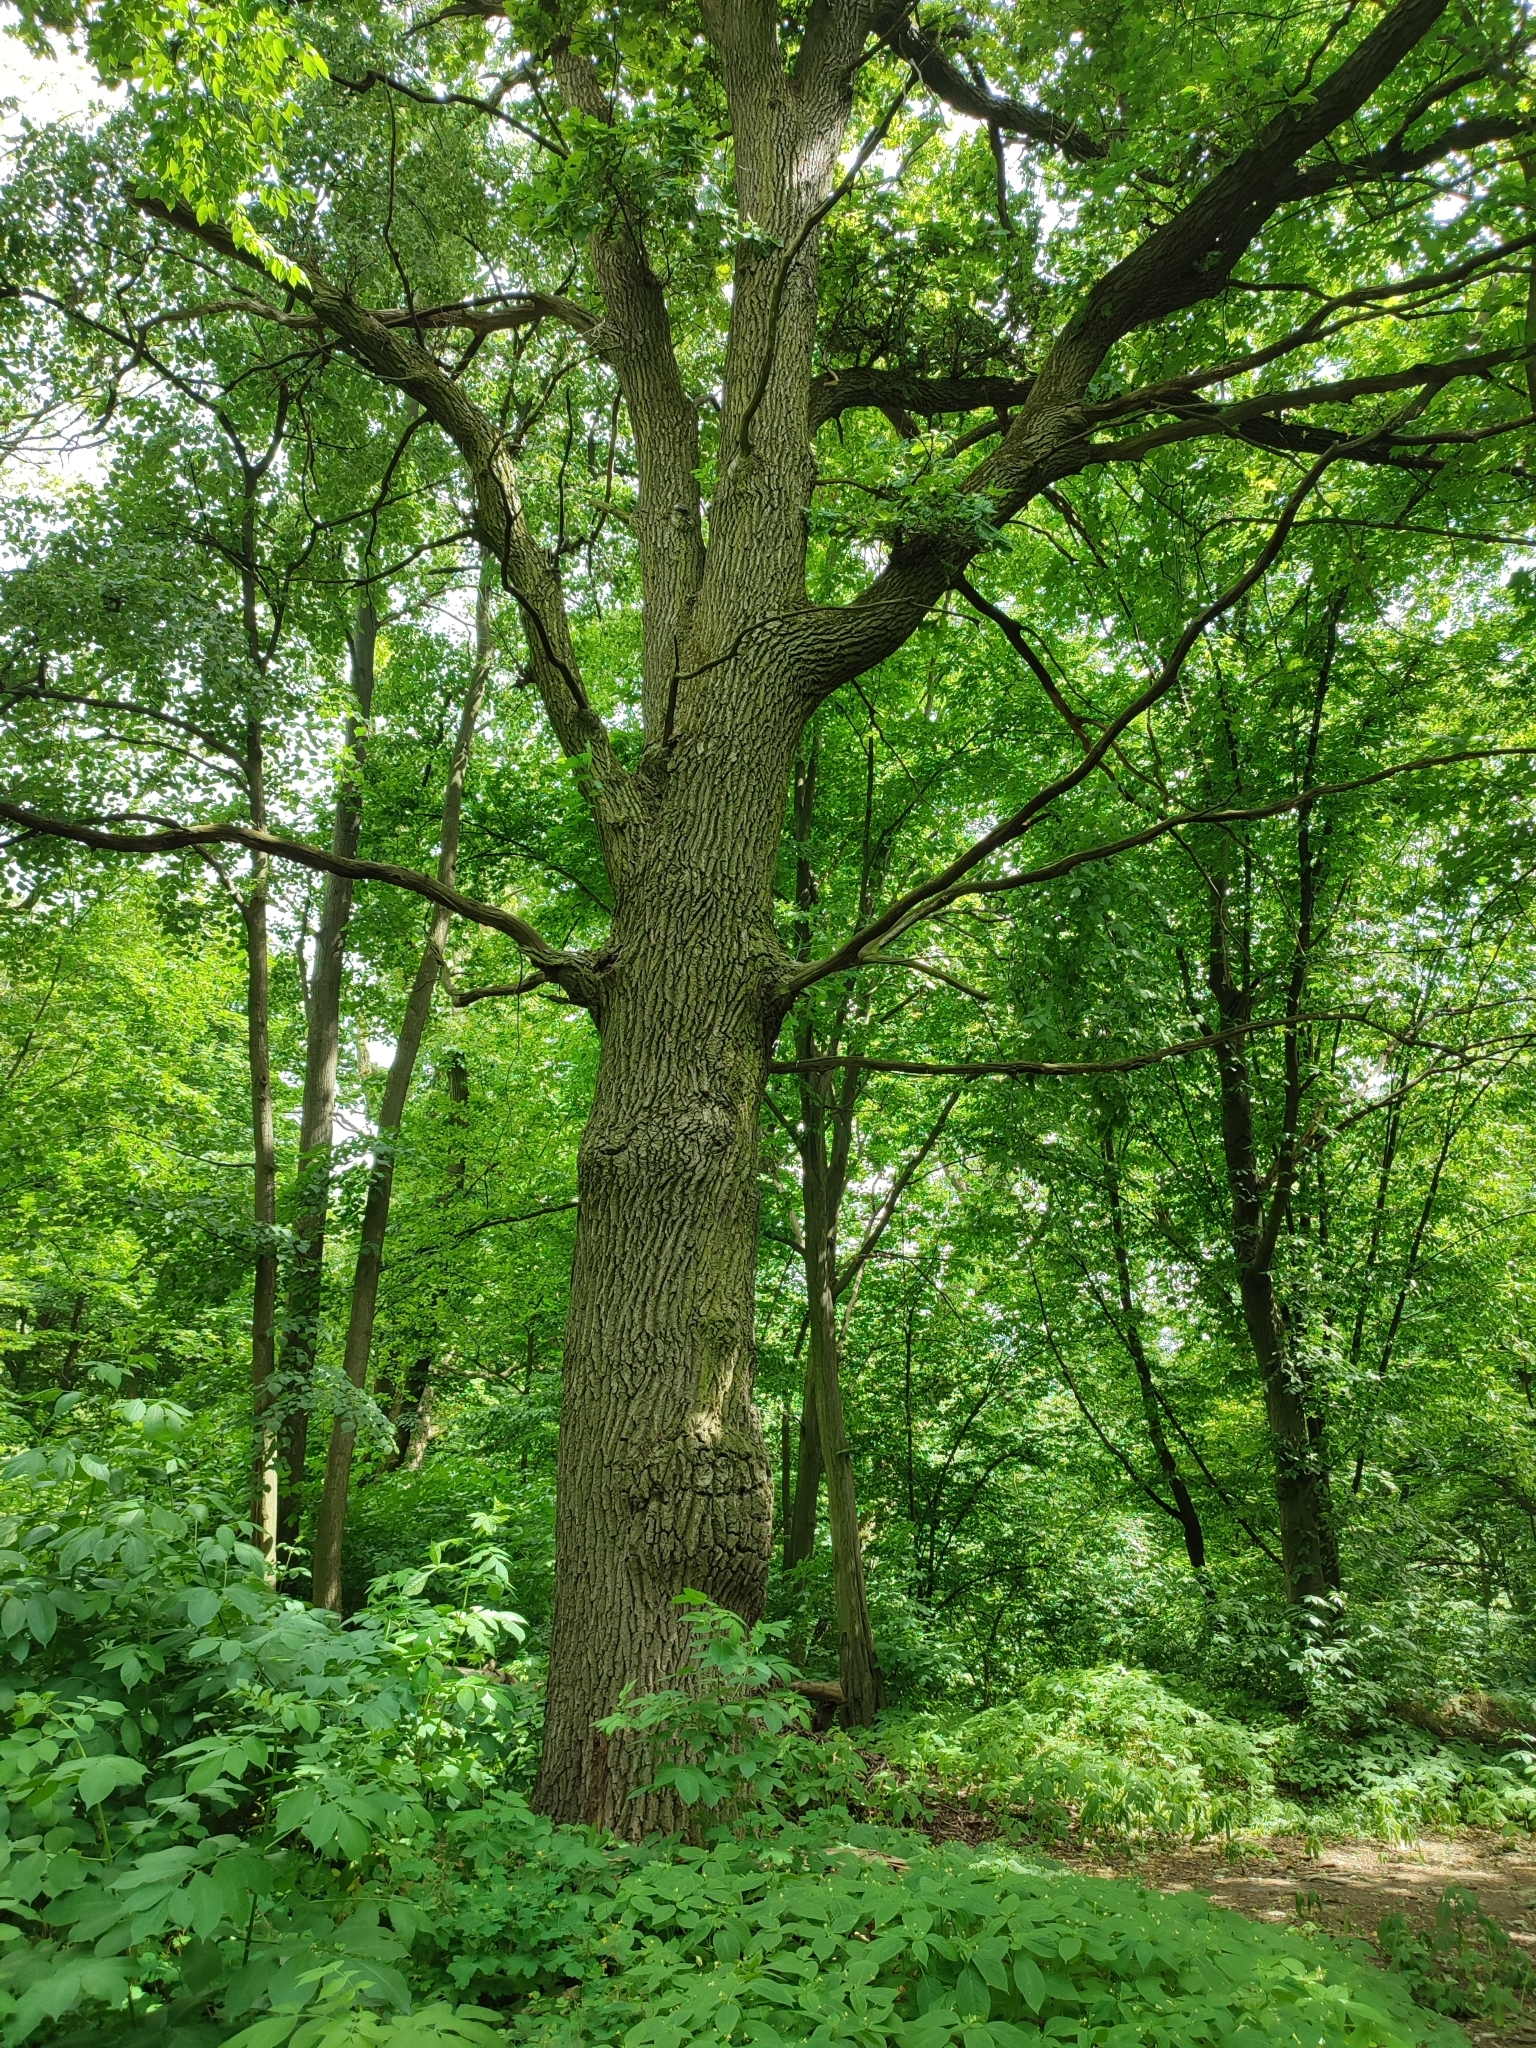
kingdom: Plantae
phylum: Tracheophyta
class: Magnoliopsida
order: Fagales
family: Fagaceae
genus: Quercus
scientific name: Quercus robur
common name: Pedunculate oak
